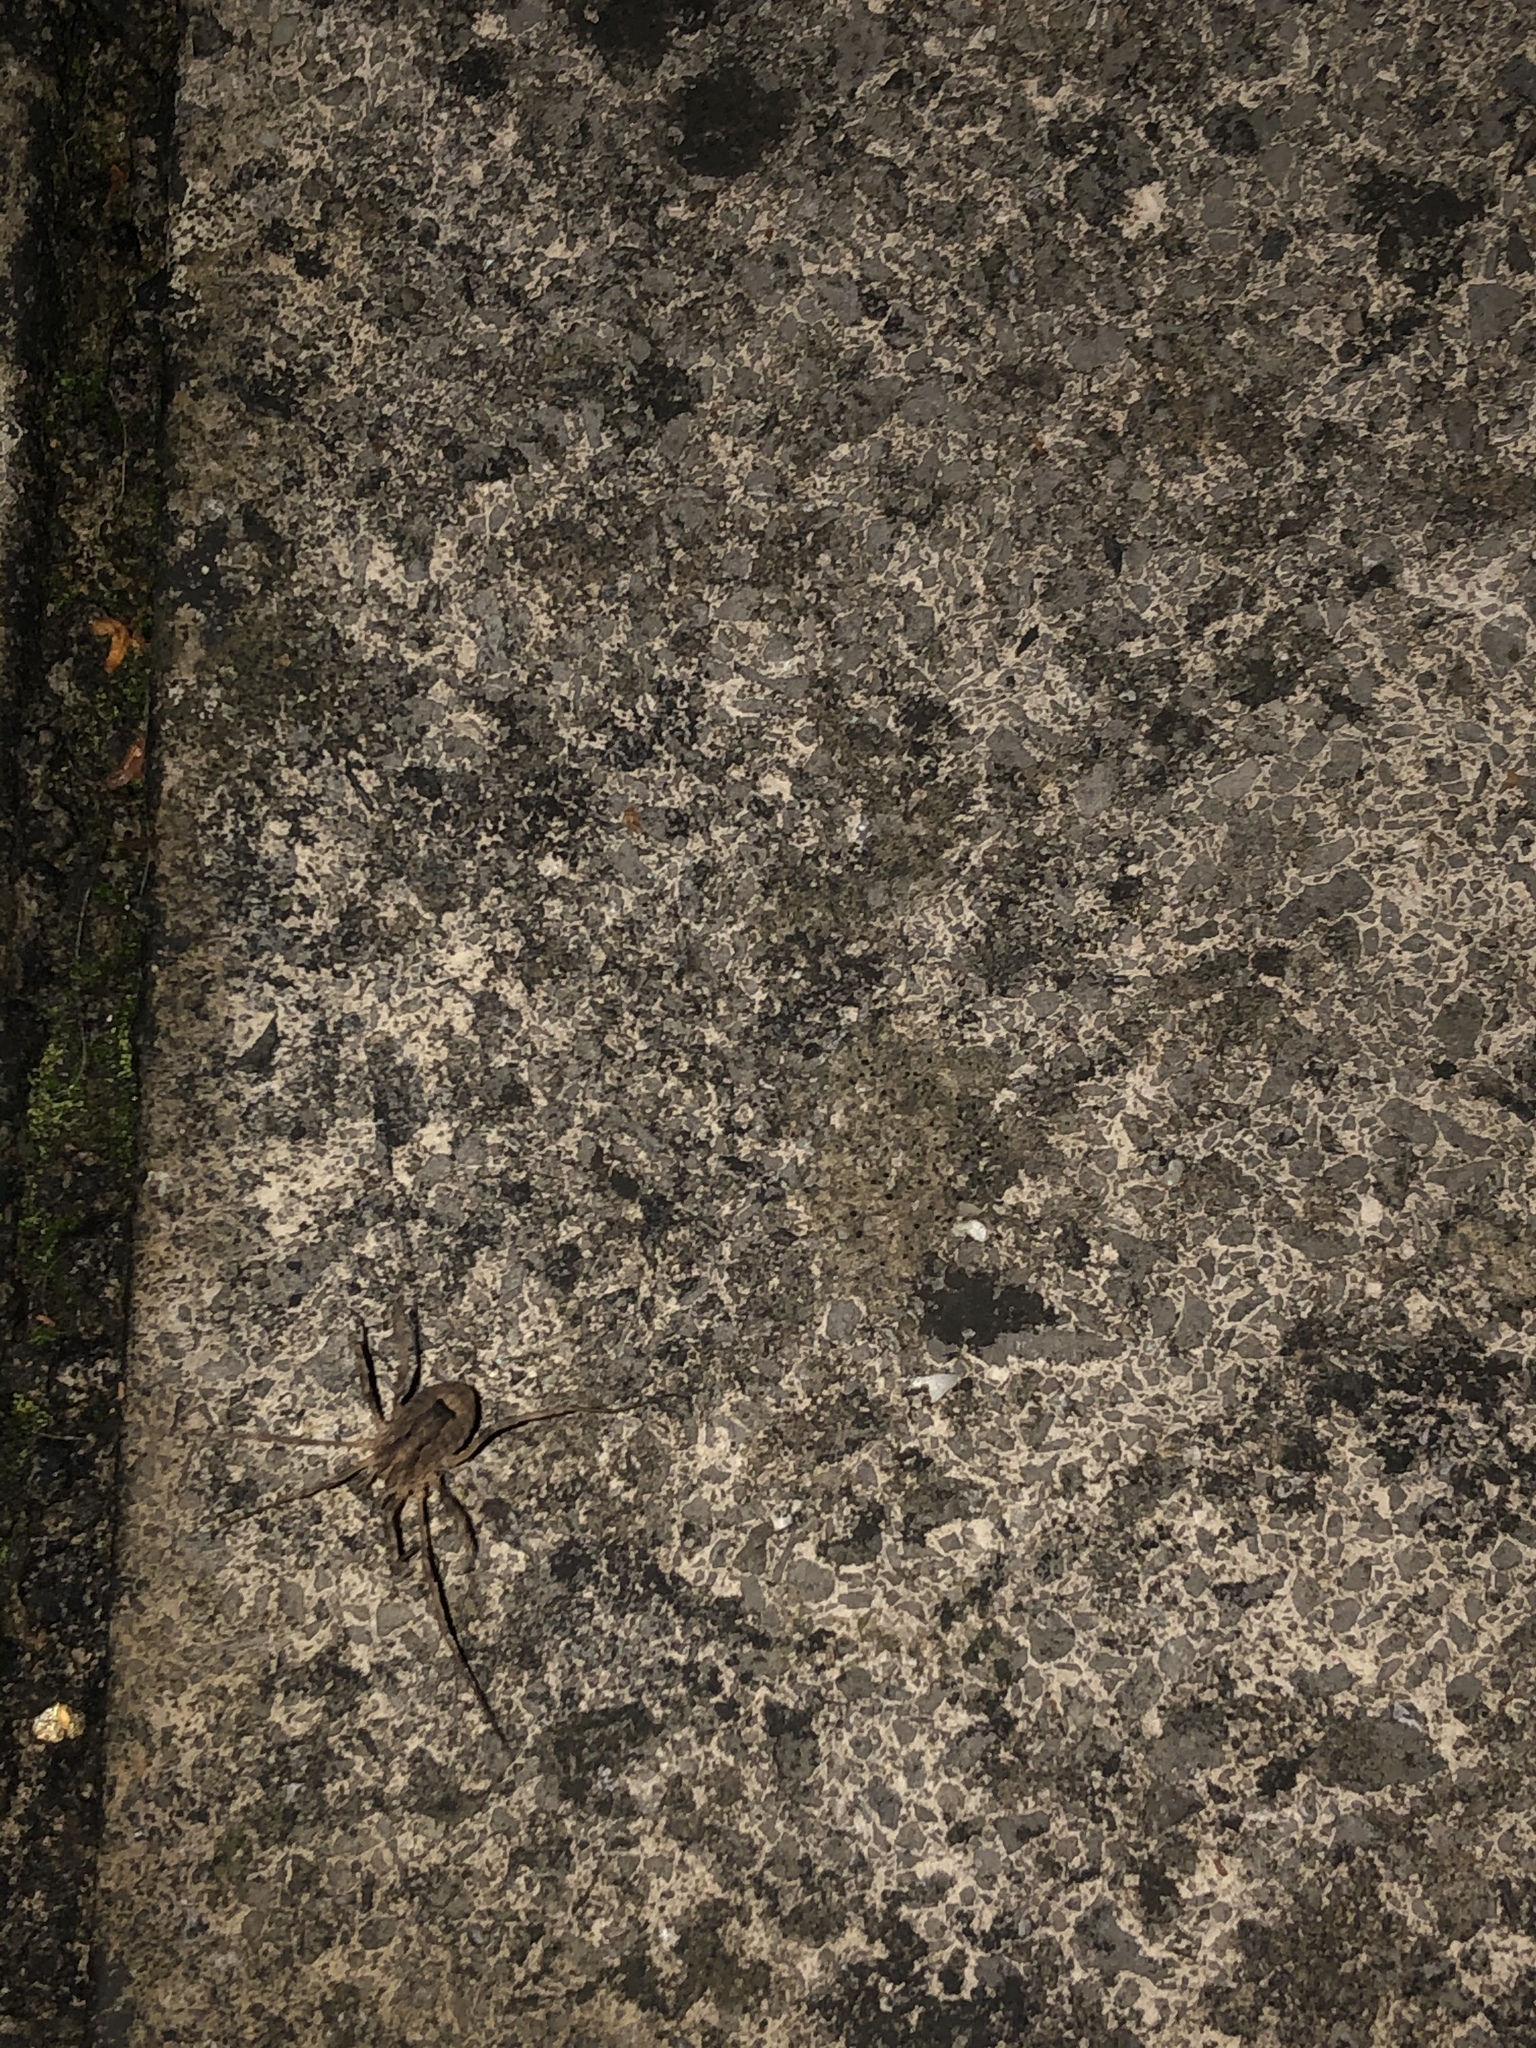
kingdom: Animalia
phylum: Arthropoda
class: Arachnida
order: Opiliones
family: Phalangiidae
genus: Odiellus
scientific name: Odiellus spinosus
